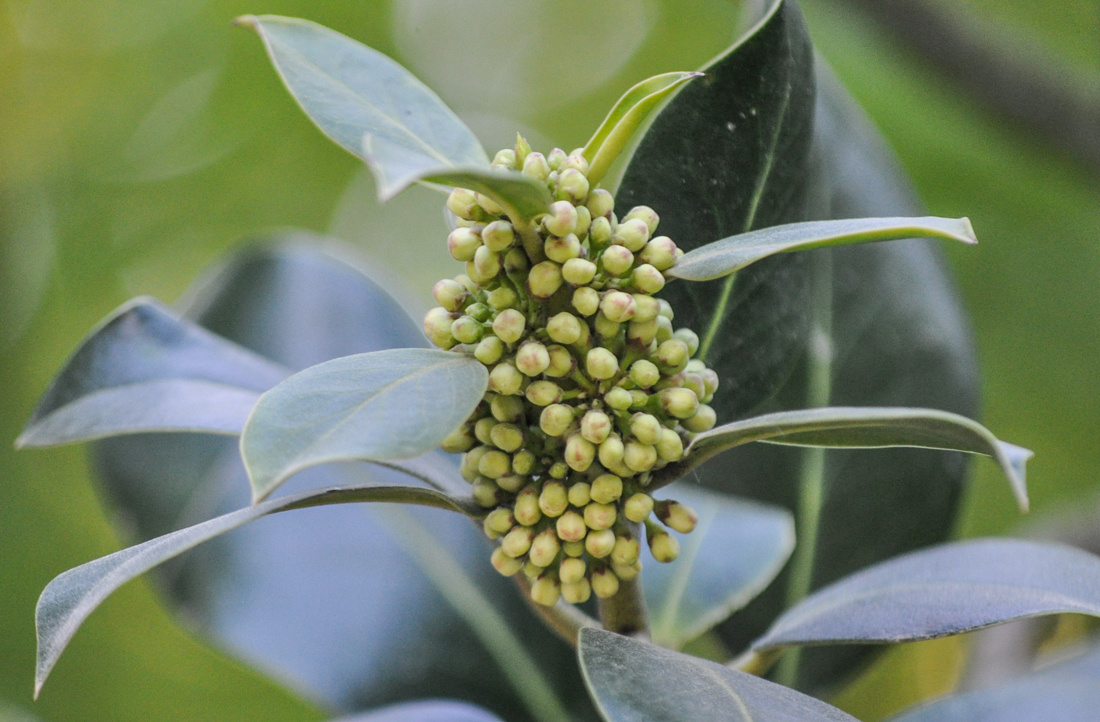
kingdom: Plantae
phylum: Tracheophyta
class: Magnoliopsida
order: Aquifoliales
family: Aquifoliaceae
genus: Ilex
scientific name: Ilex aquifolium
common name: English holly
